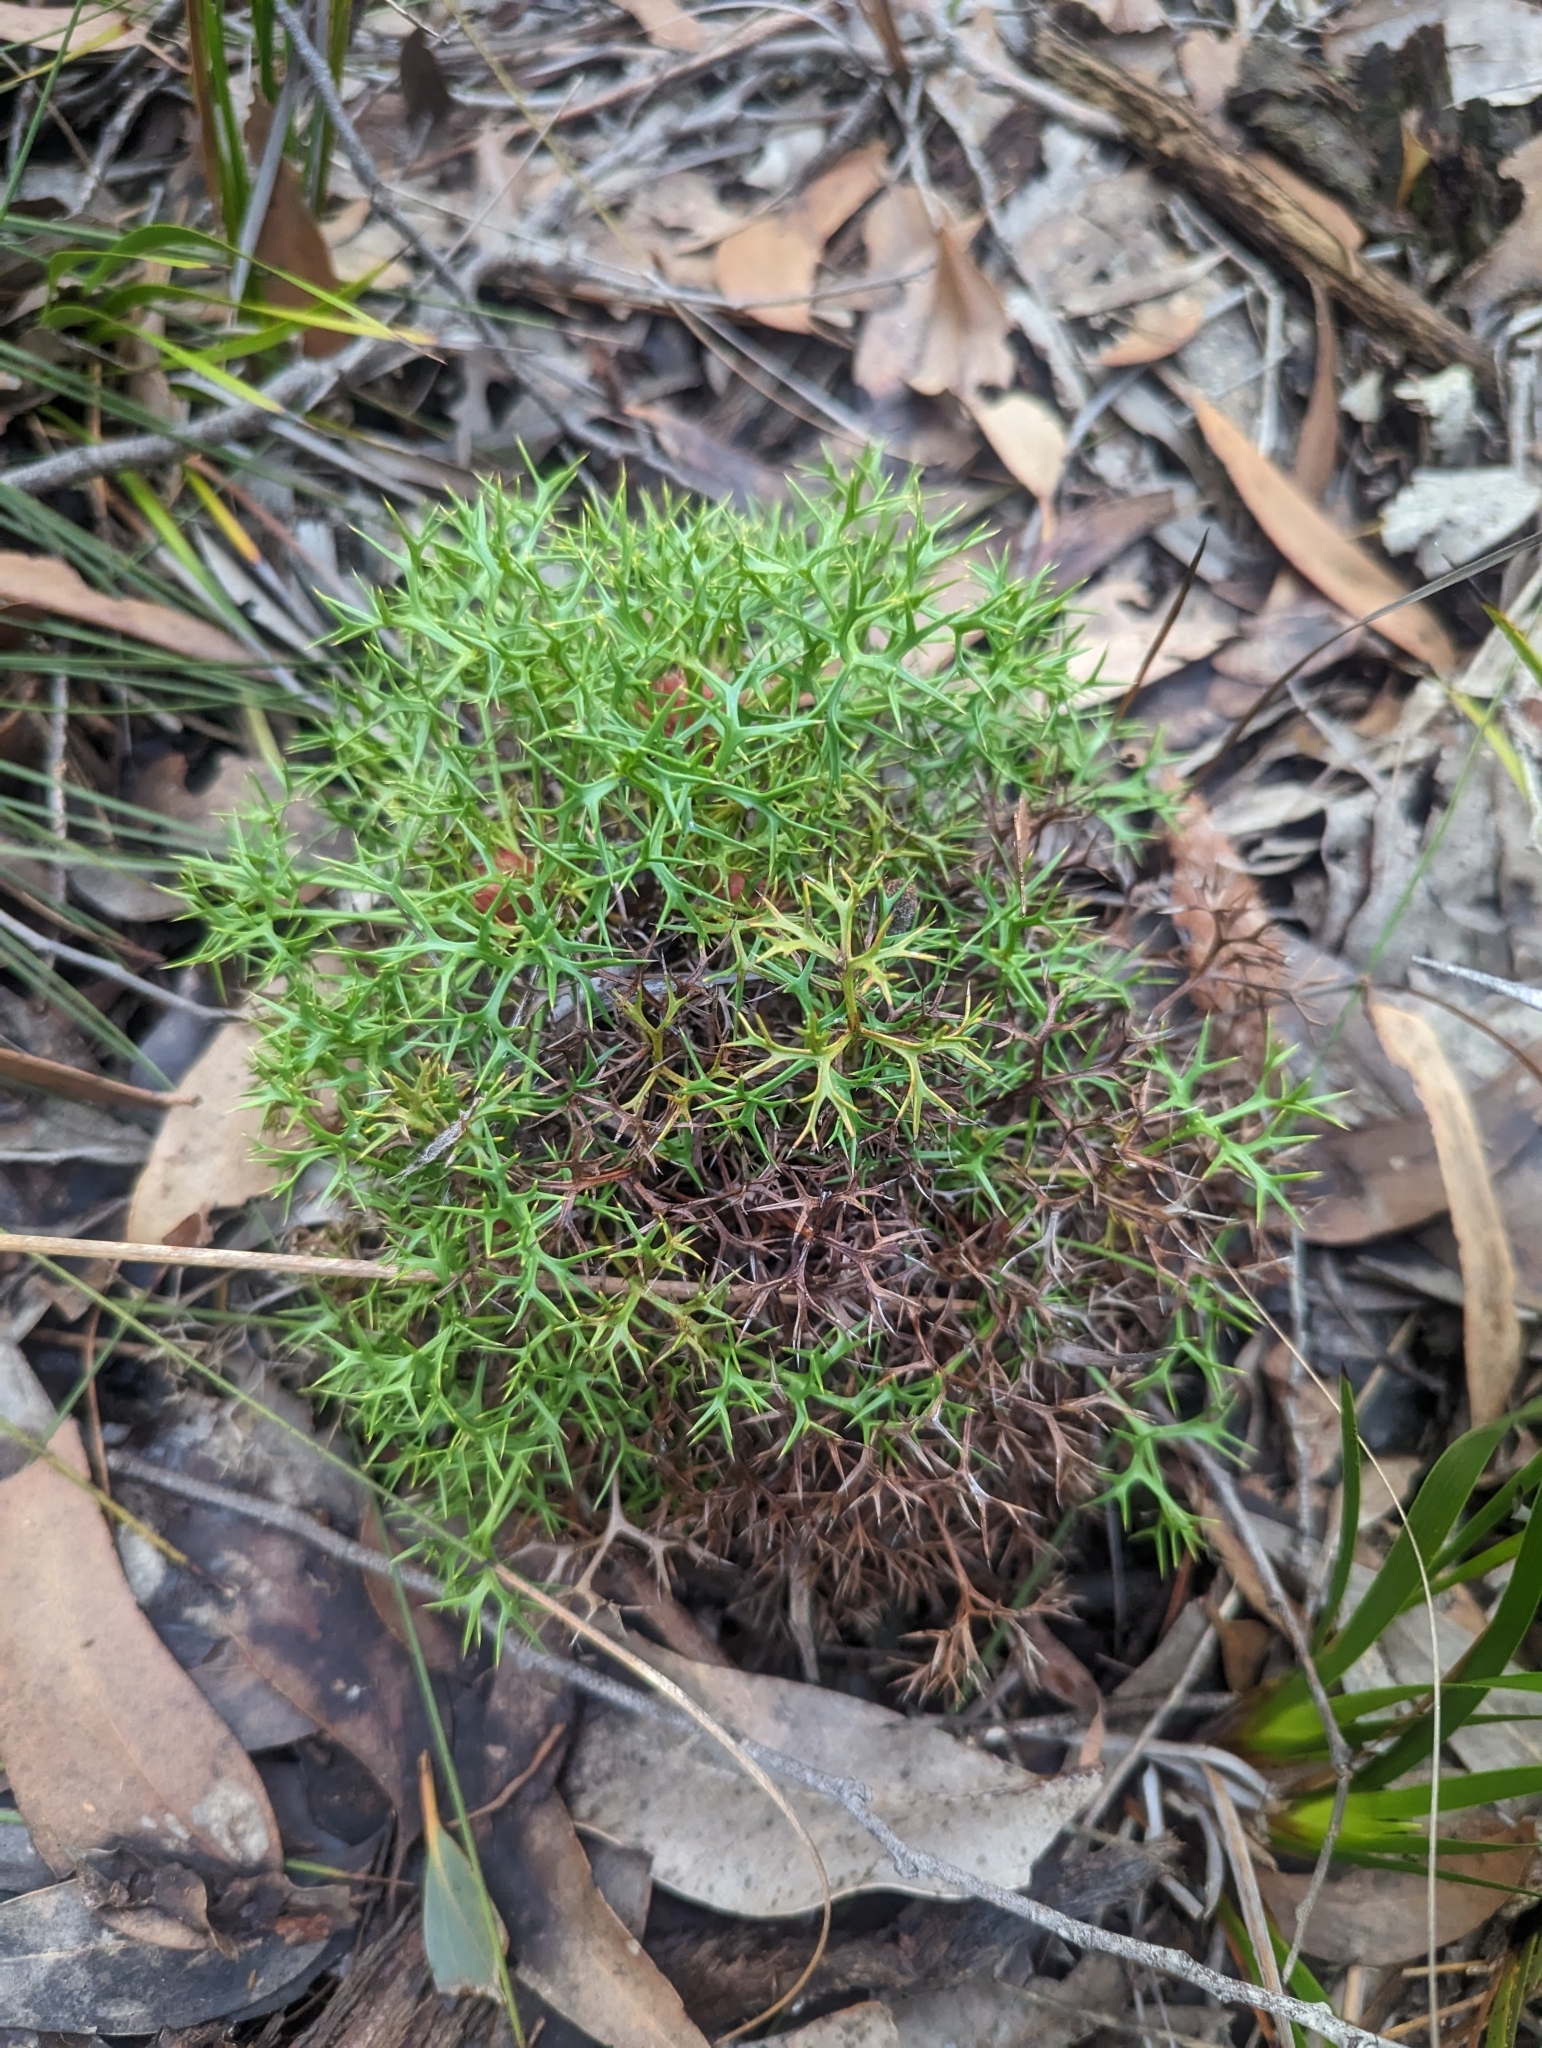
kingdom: Plantae
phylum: Tracheophyta
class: Magnoliopsida
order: Proteales
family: Proteaceae
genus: Isopogon
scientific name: Isopogon ceratophyllus
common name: Horny cone-bush
